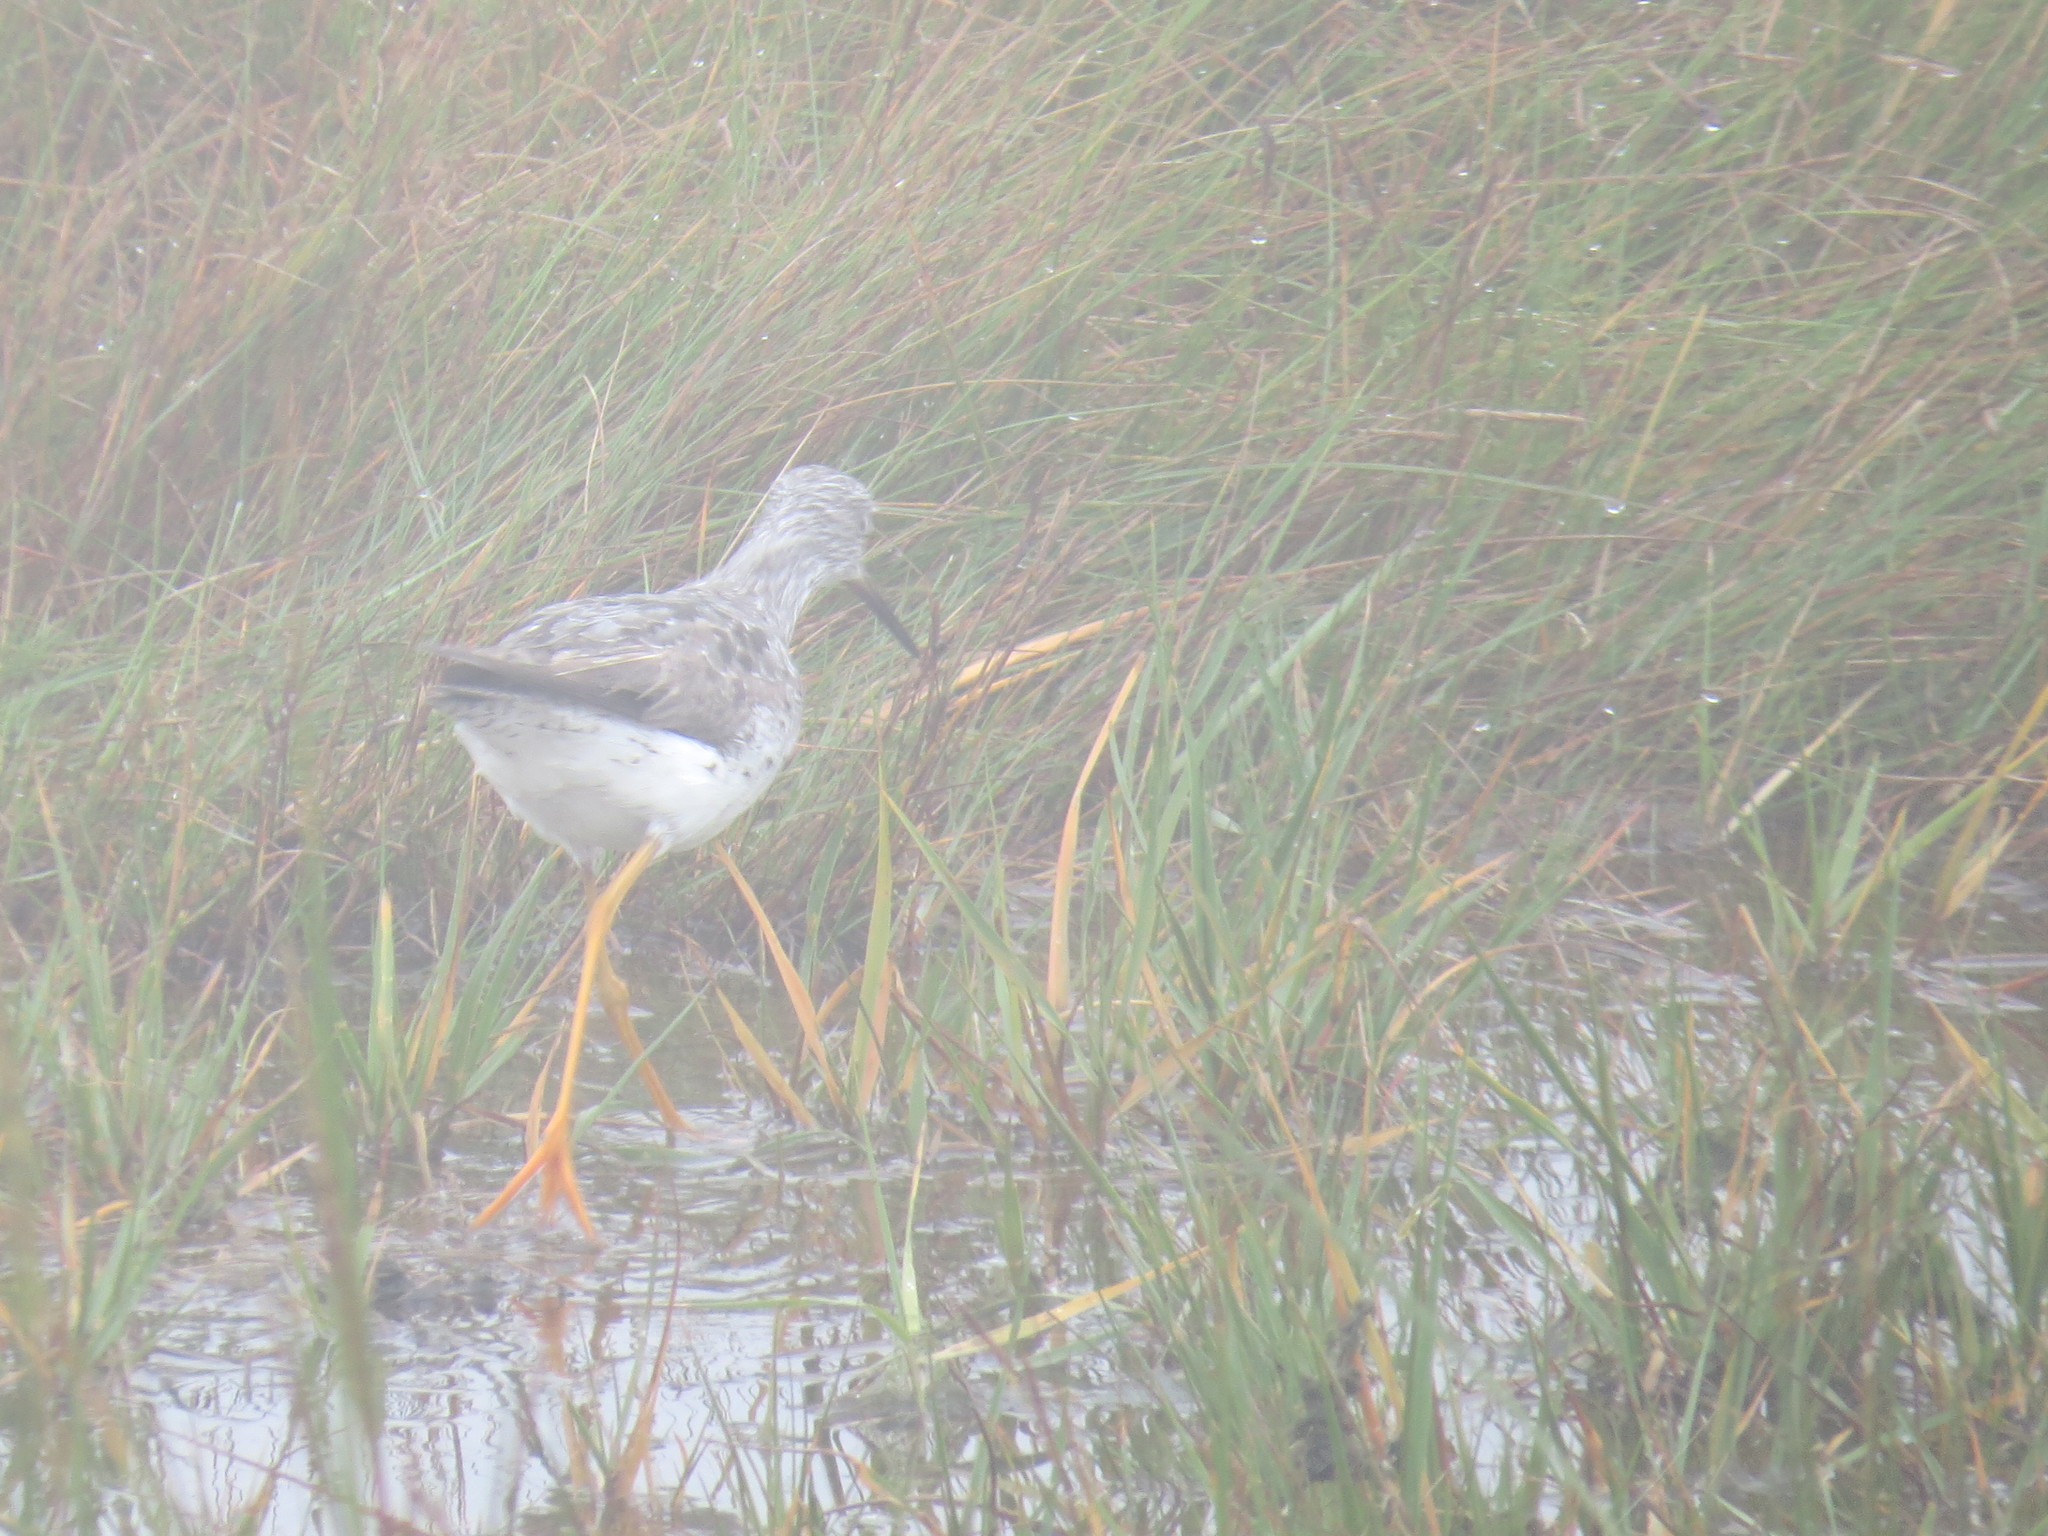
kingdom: Animalia
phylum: Chordata
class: Aves
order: Charadriiformes
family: Scolopacidae
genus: Tringa
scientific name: Tringa melanoleuca
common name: Greater yellowlegs
